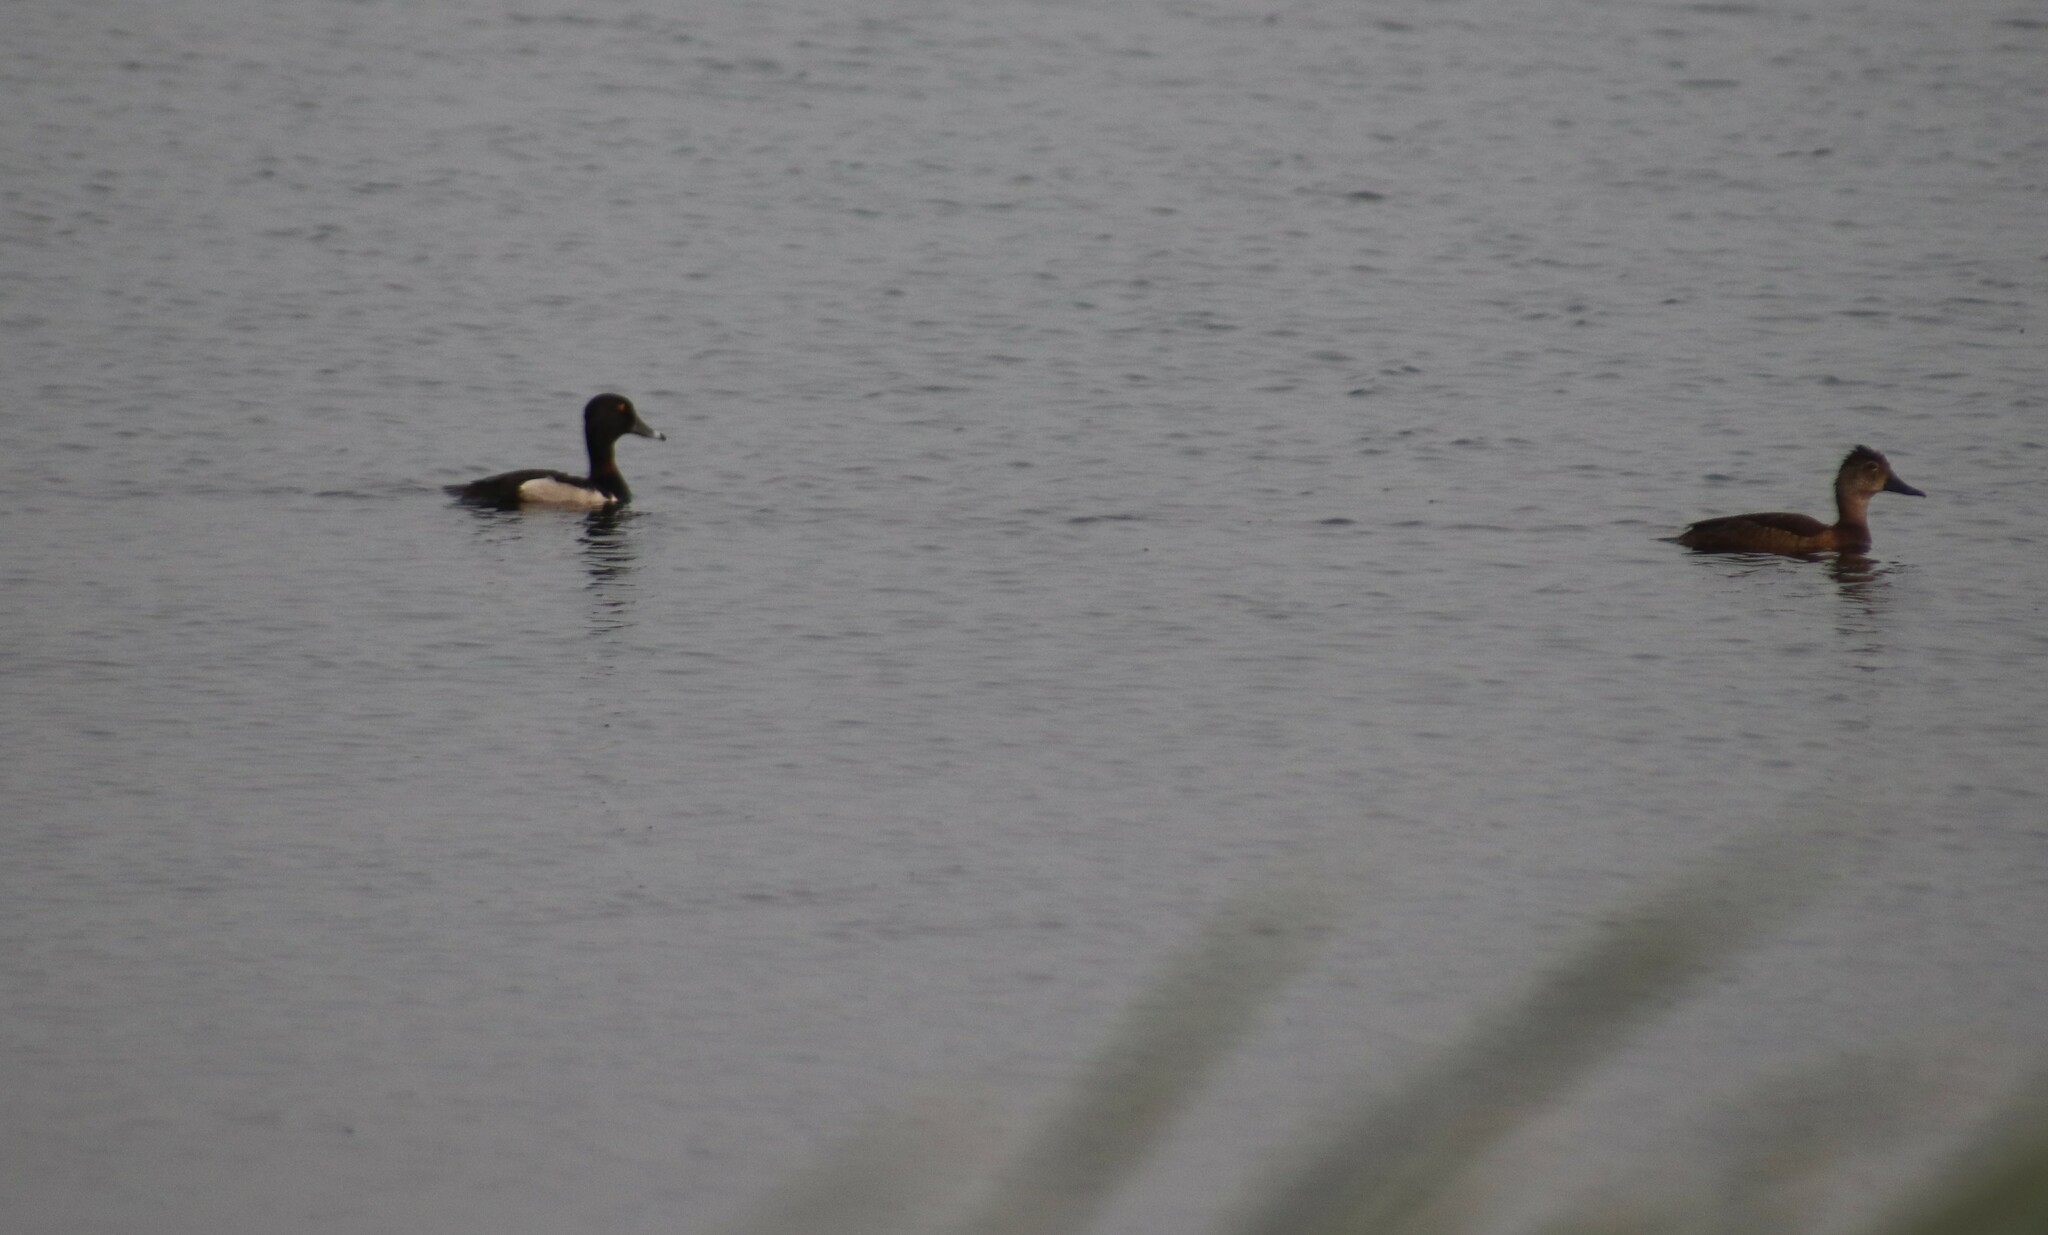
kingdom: Animalia
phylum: Chordata
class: Aves
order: Anseriformes
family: Anatidae
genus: Aythya
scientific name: Aythya collaris
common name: Ring-necked duck
